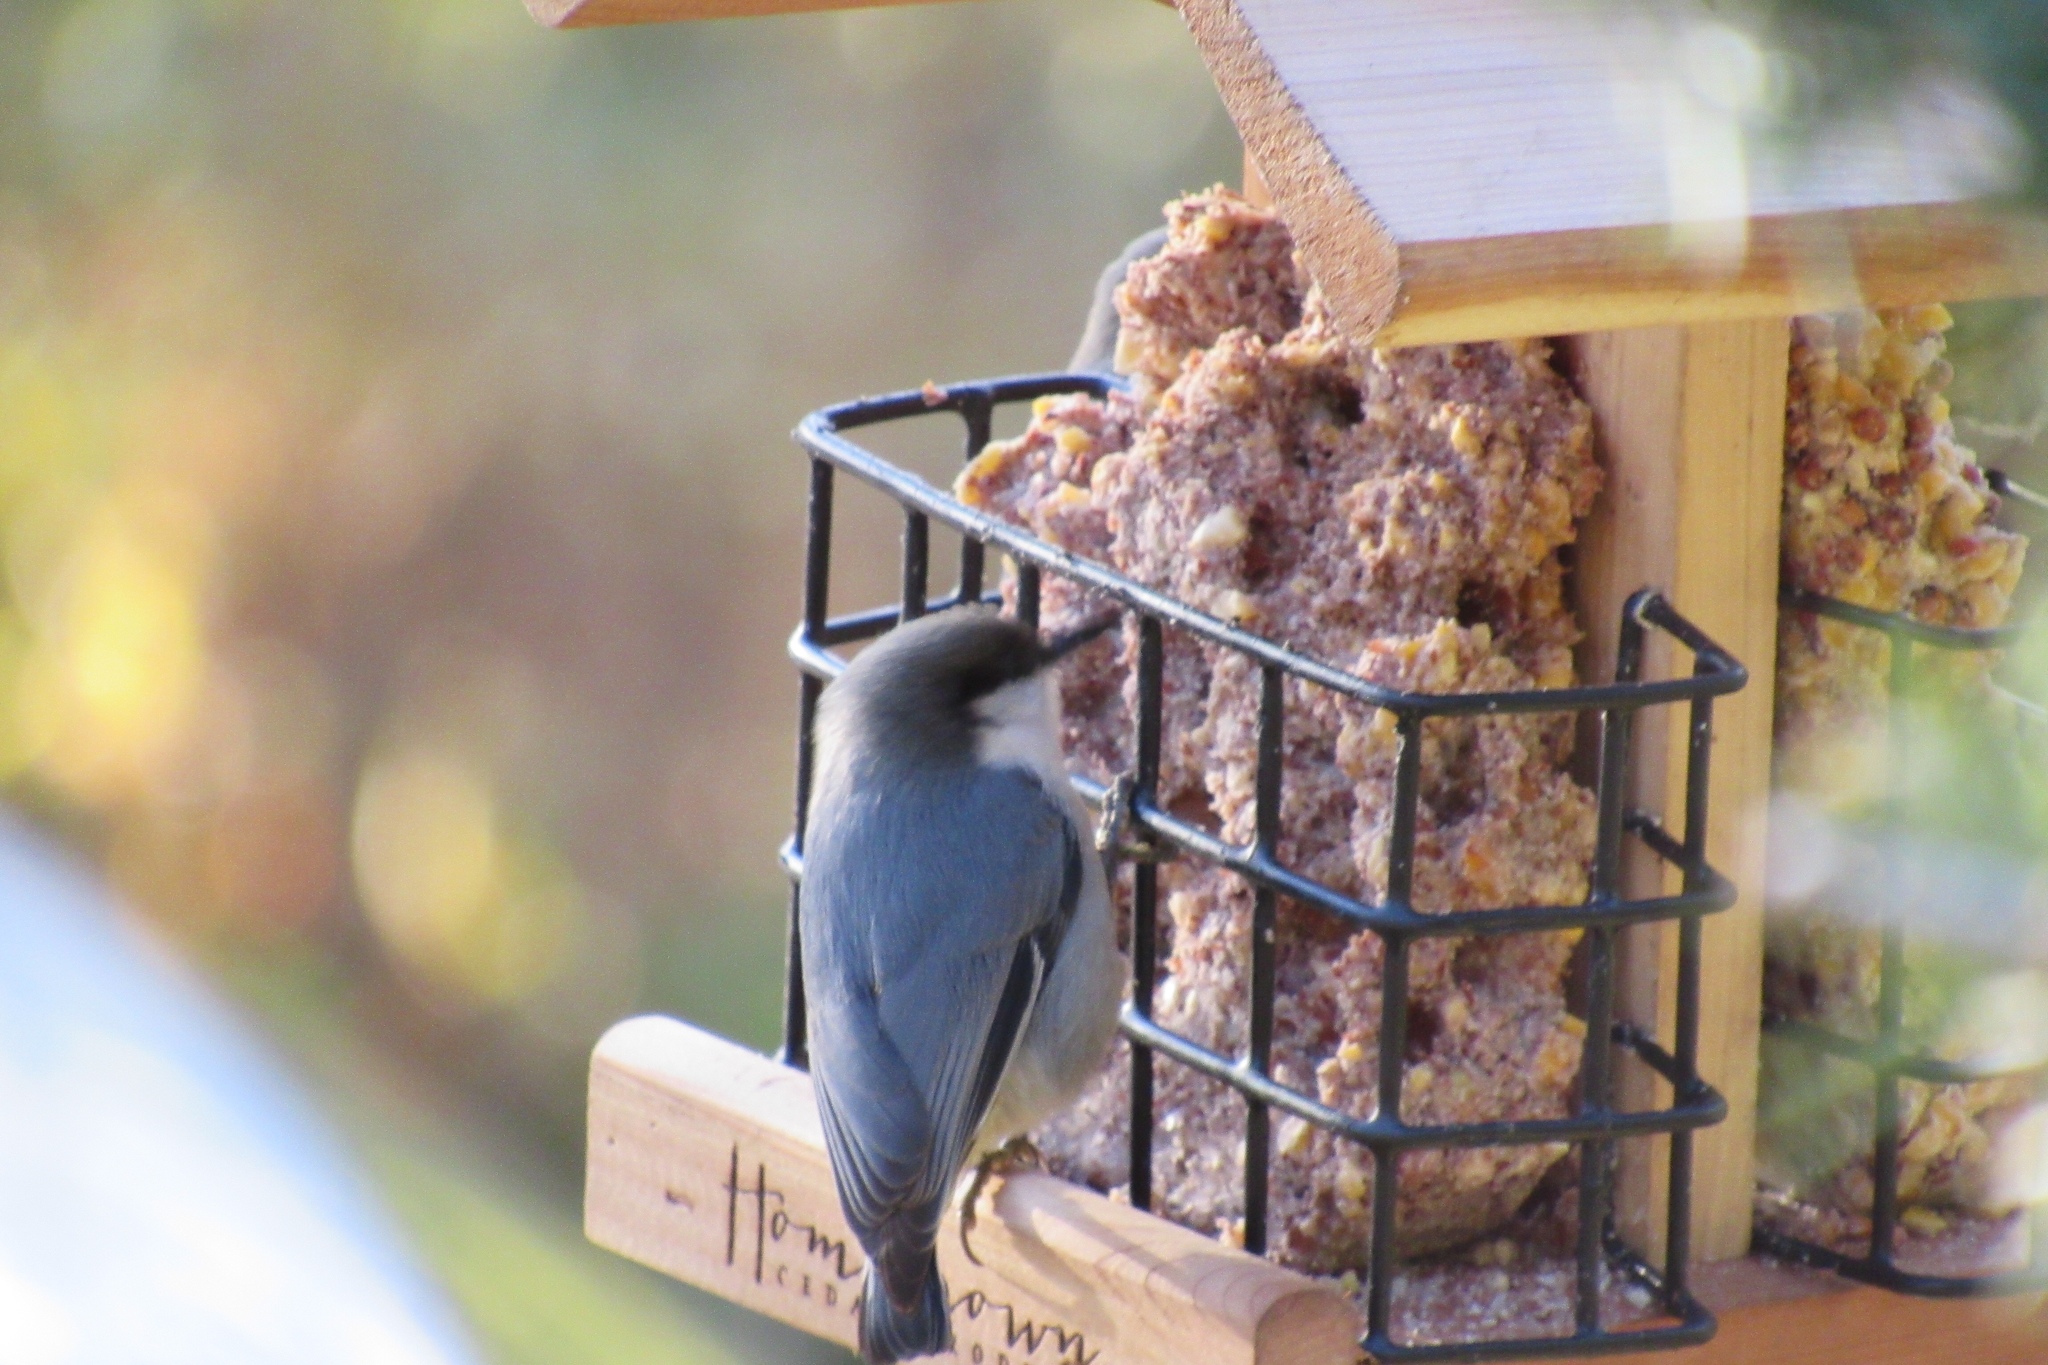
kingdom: Animalia
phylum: Chordata
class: Aves
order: Passeriformes
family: Sittidae
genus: Sitta
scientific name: Sitta pygmaea
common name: Pygmy nuthatch
